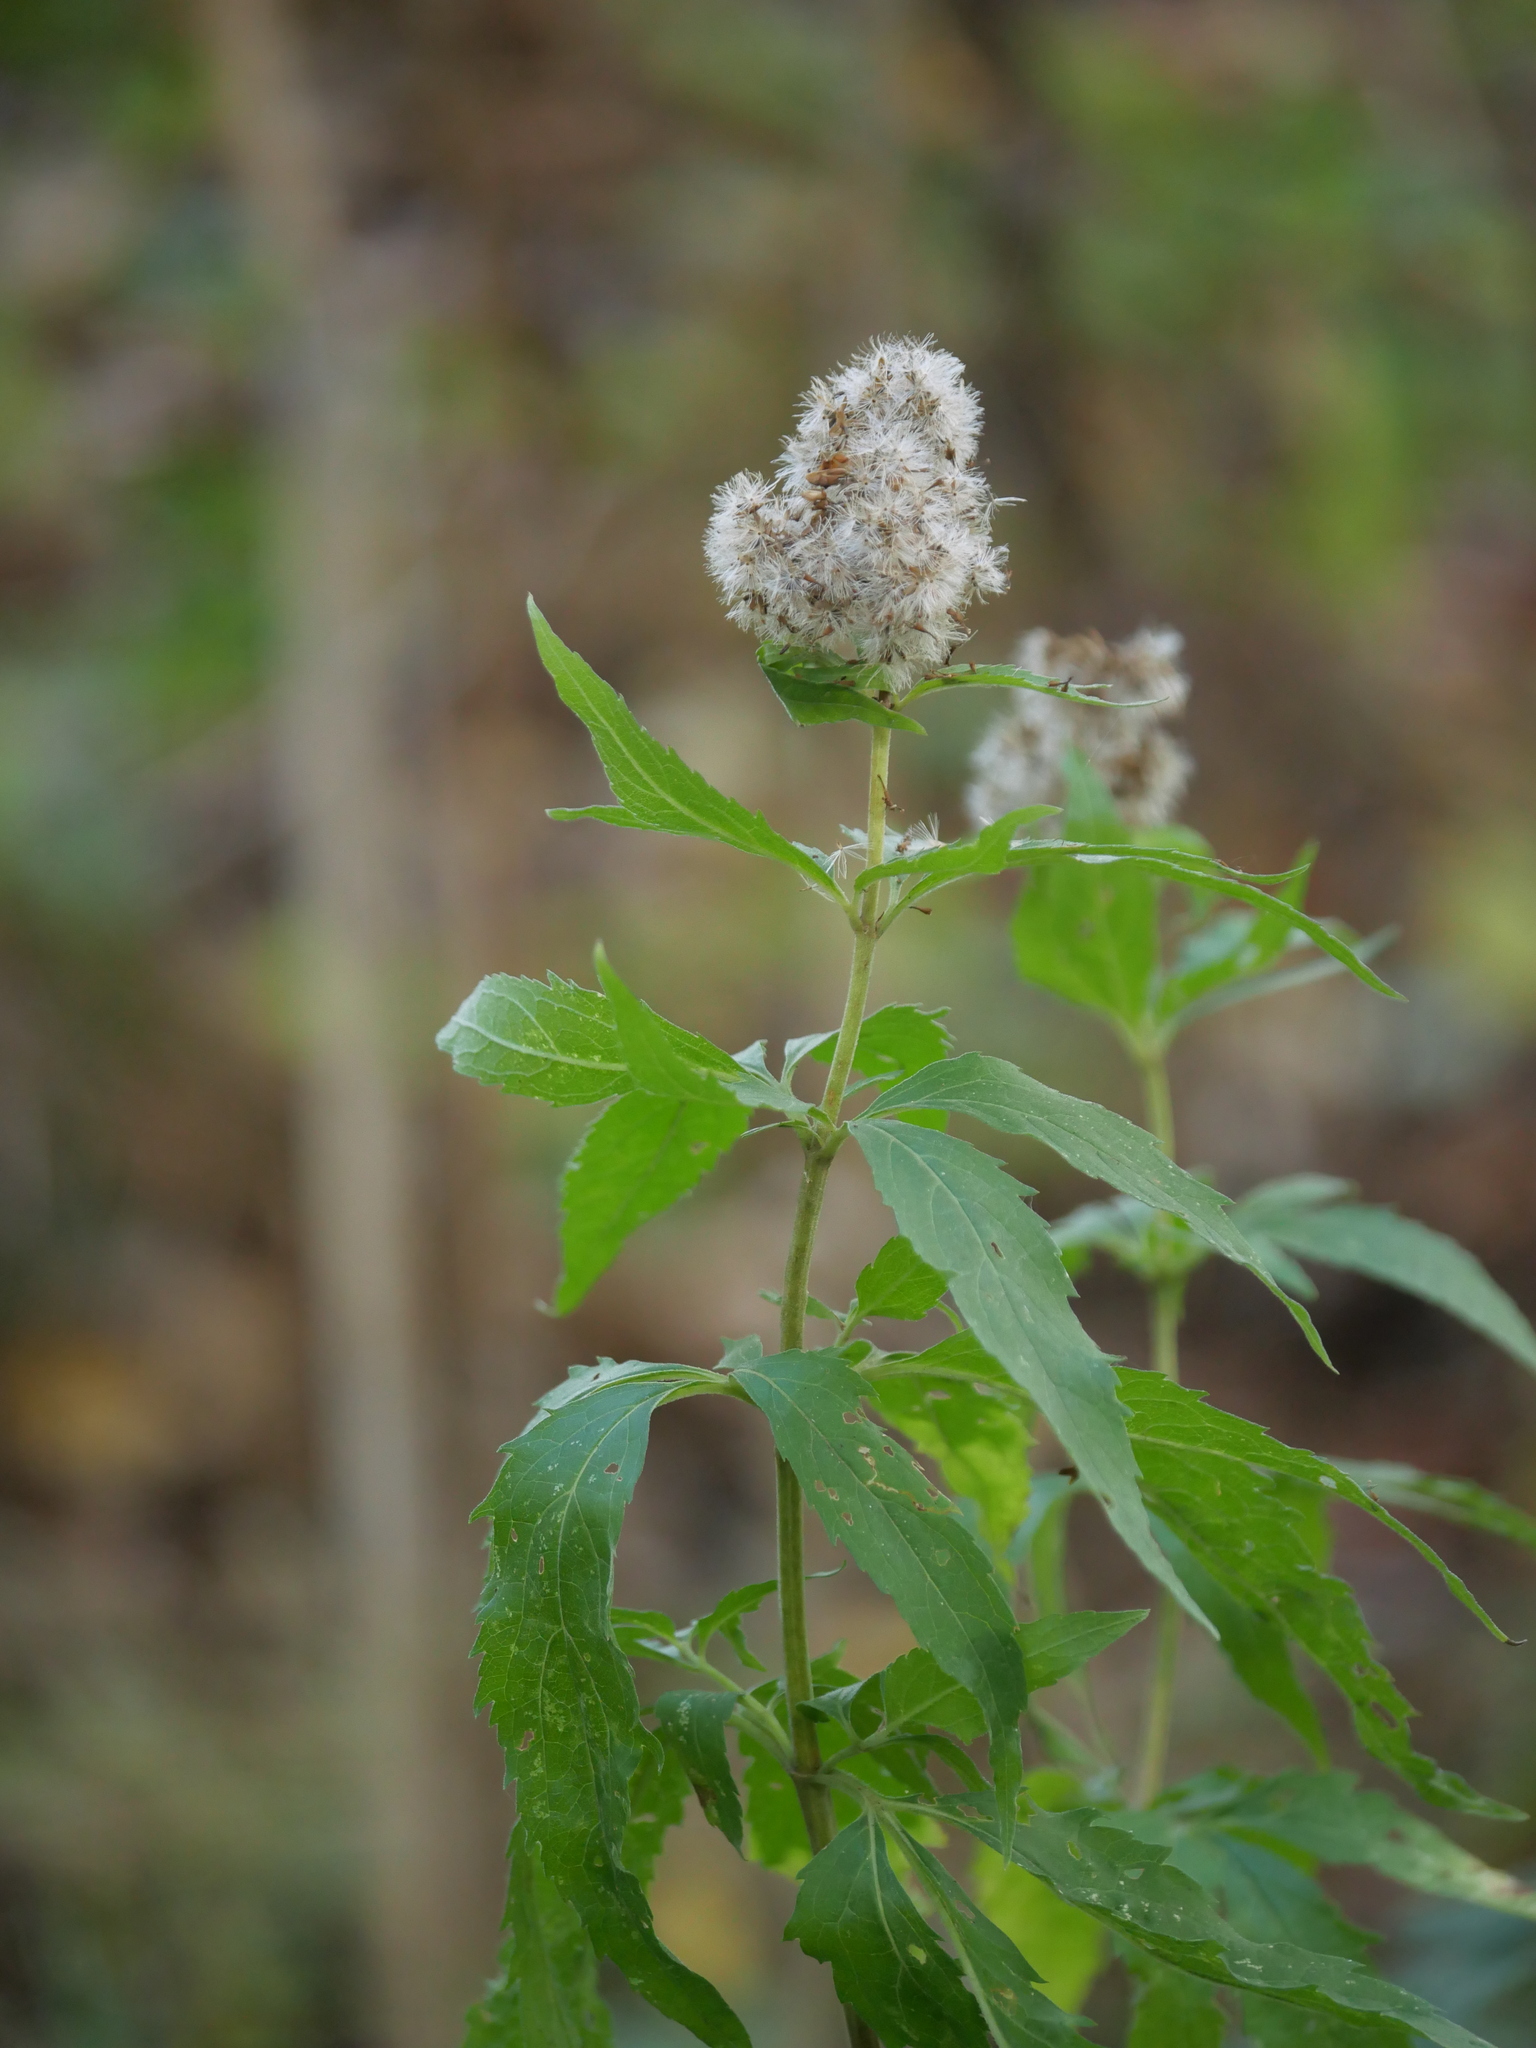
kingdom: Plantae
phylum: Tracheophyta
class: Magnoliopsida
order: Asterales
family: Asteraceae
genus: Eupatorium
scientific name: Eupatorium cannabinum
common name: Hemp-agrimony
